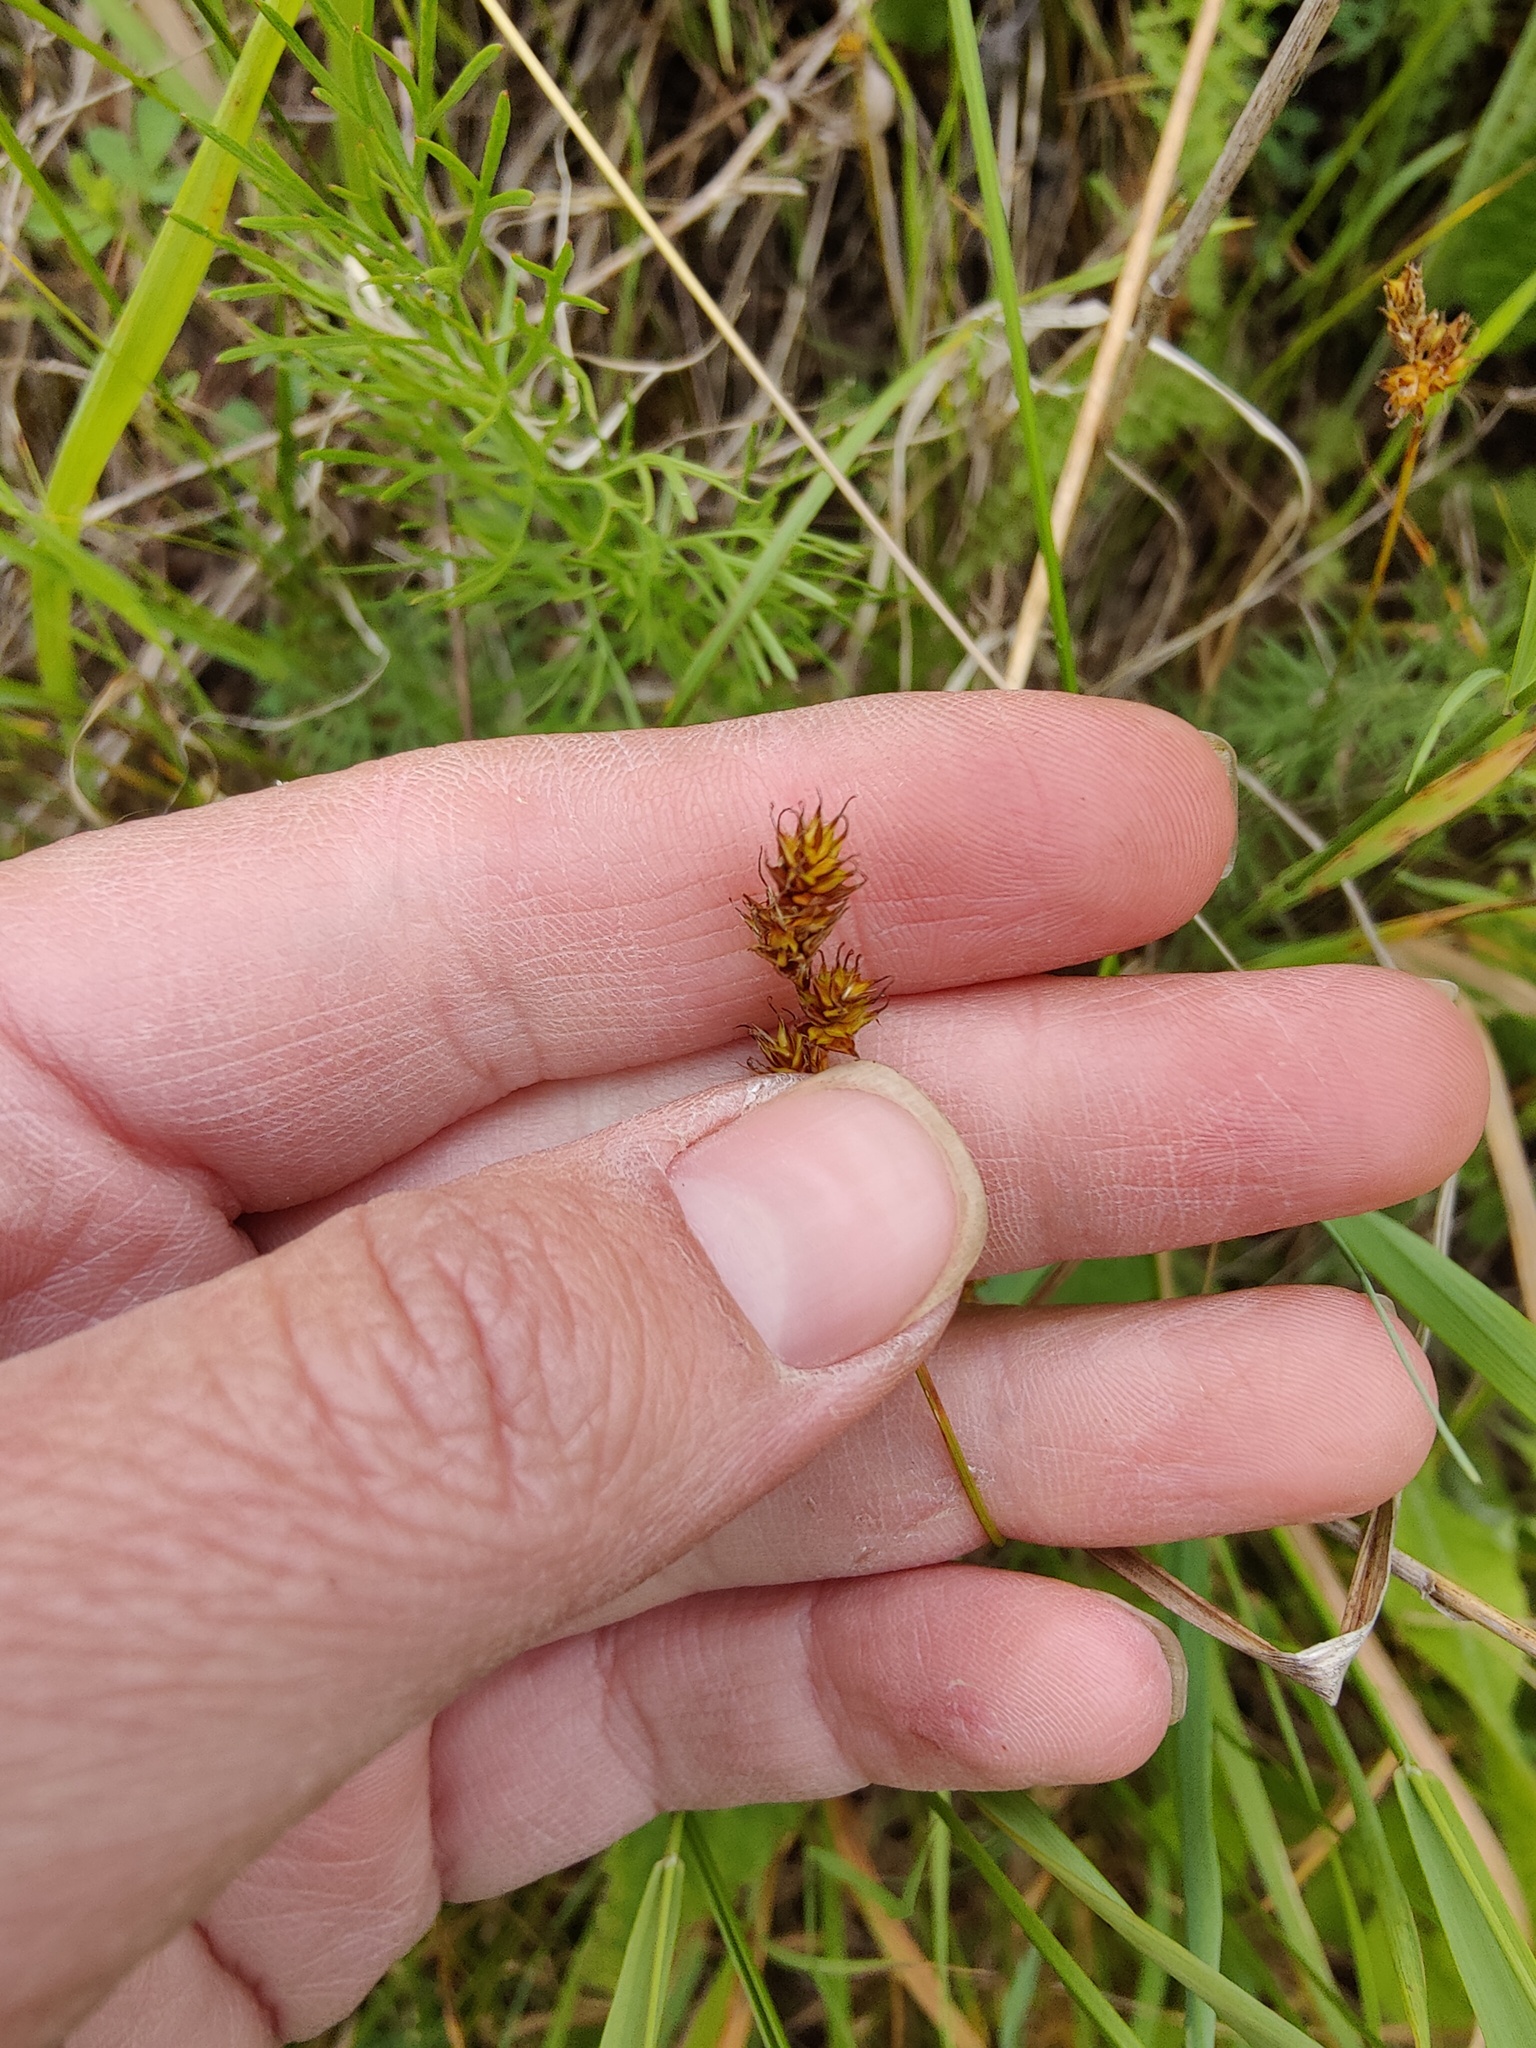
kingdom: Plantae
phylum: Tracheophyta
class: Liliopsida
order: Poales
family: Cyperaceae
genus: Carex
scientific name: Carex praecox
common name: Early sedge
